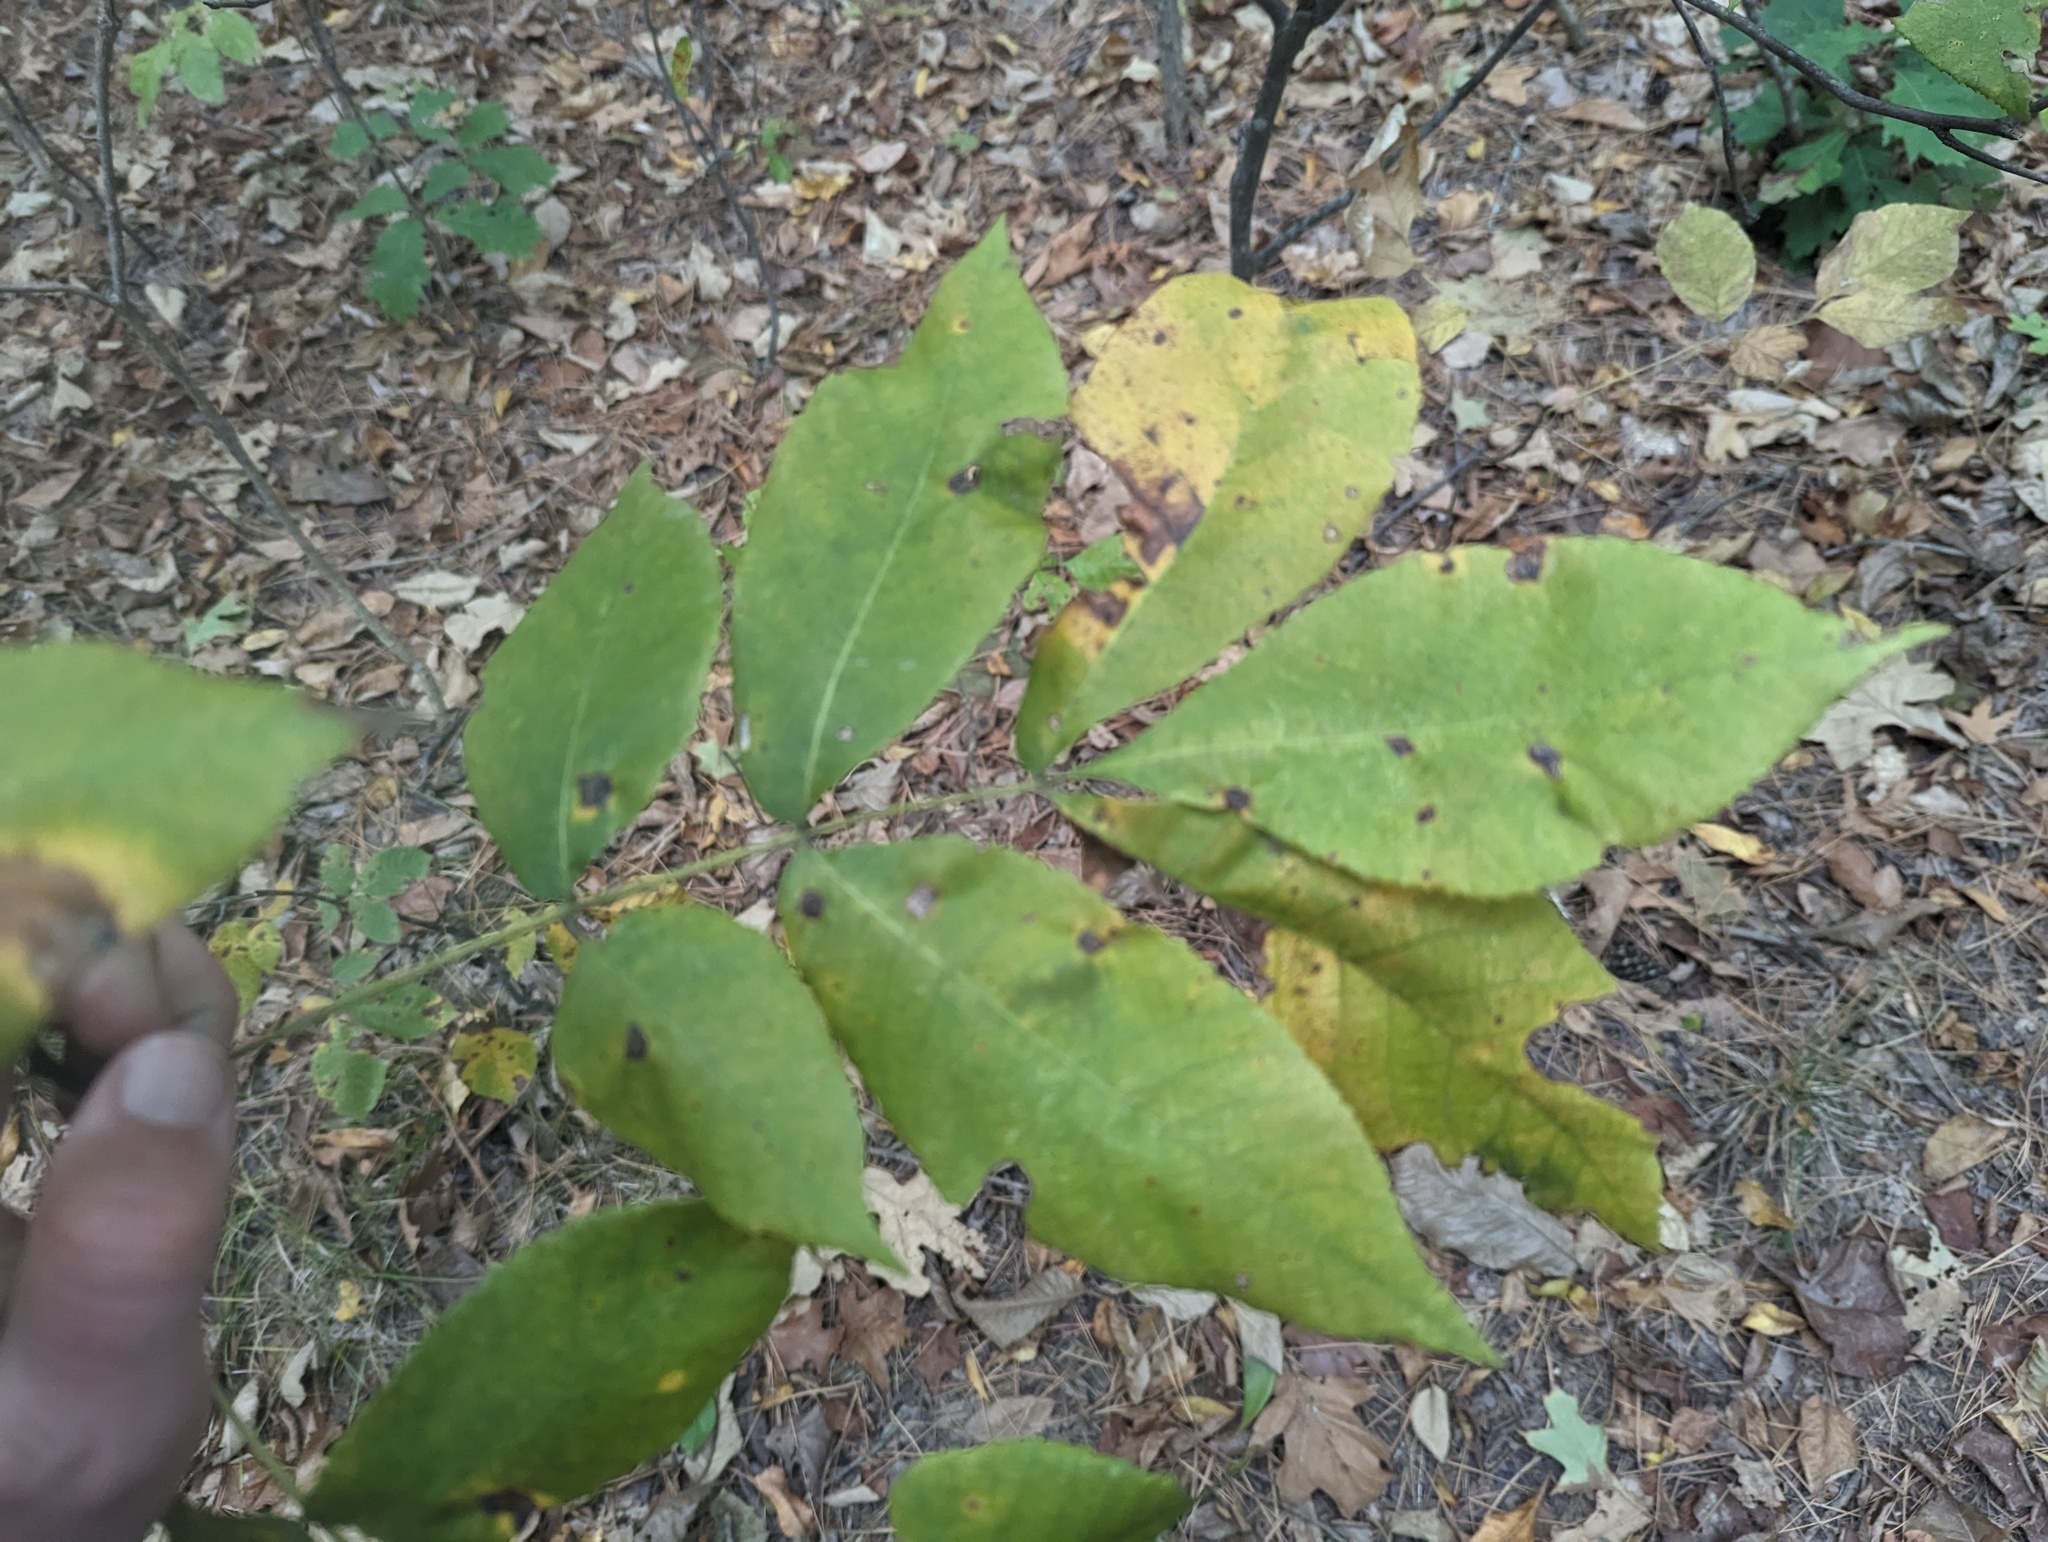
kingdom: Plantae
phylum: Tracheophyta
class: Magnoliopsida
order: Fagales
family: Juglandaceae
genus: Carya
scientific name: Carya ovalis
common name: False shagbark
